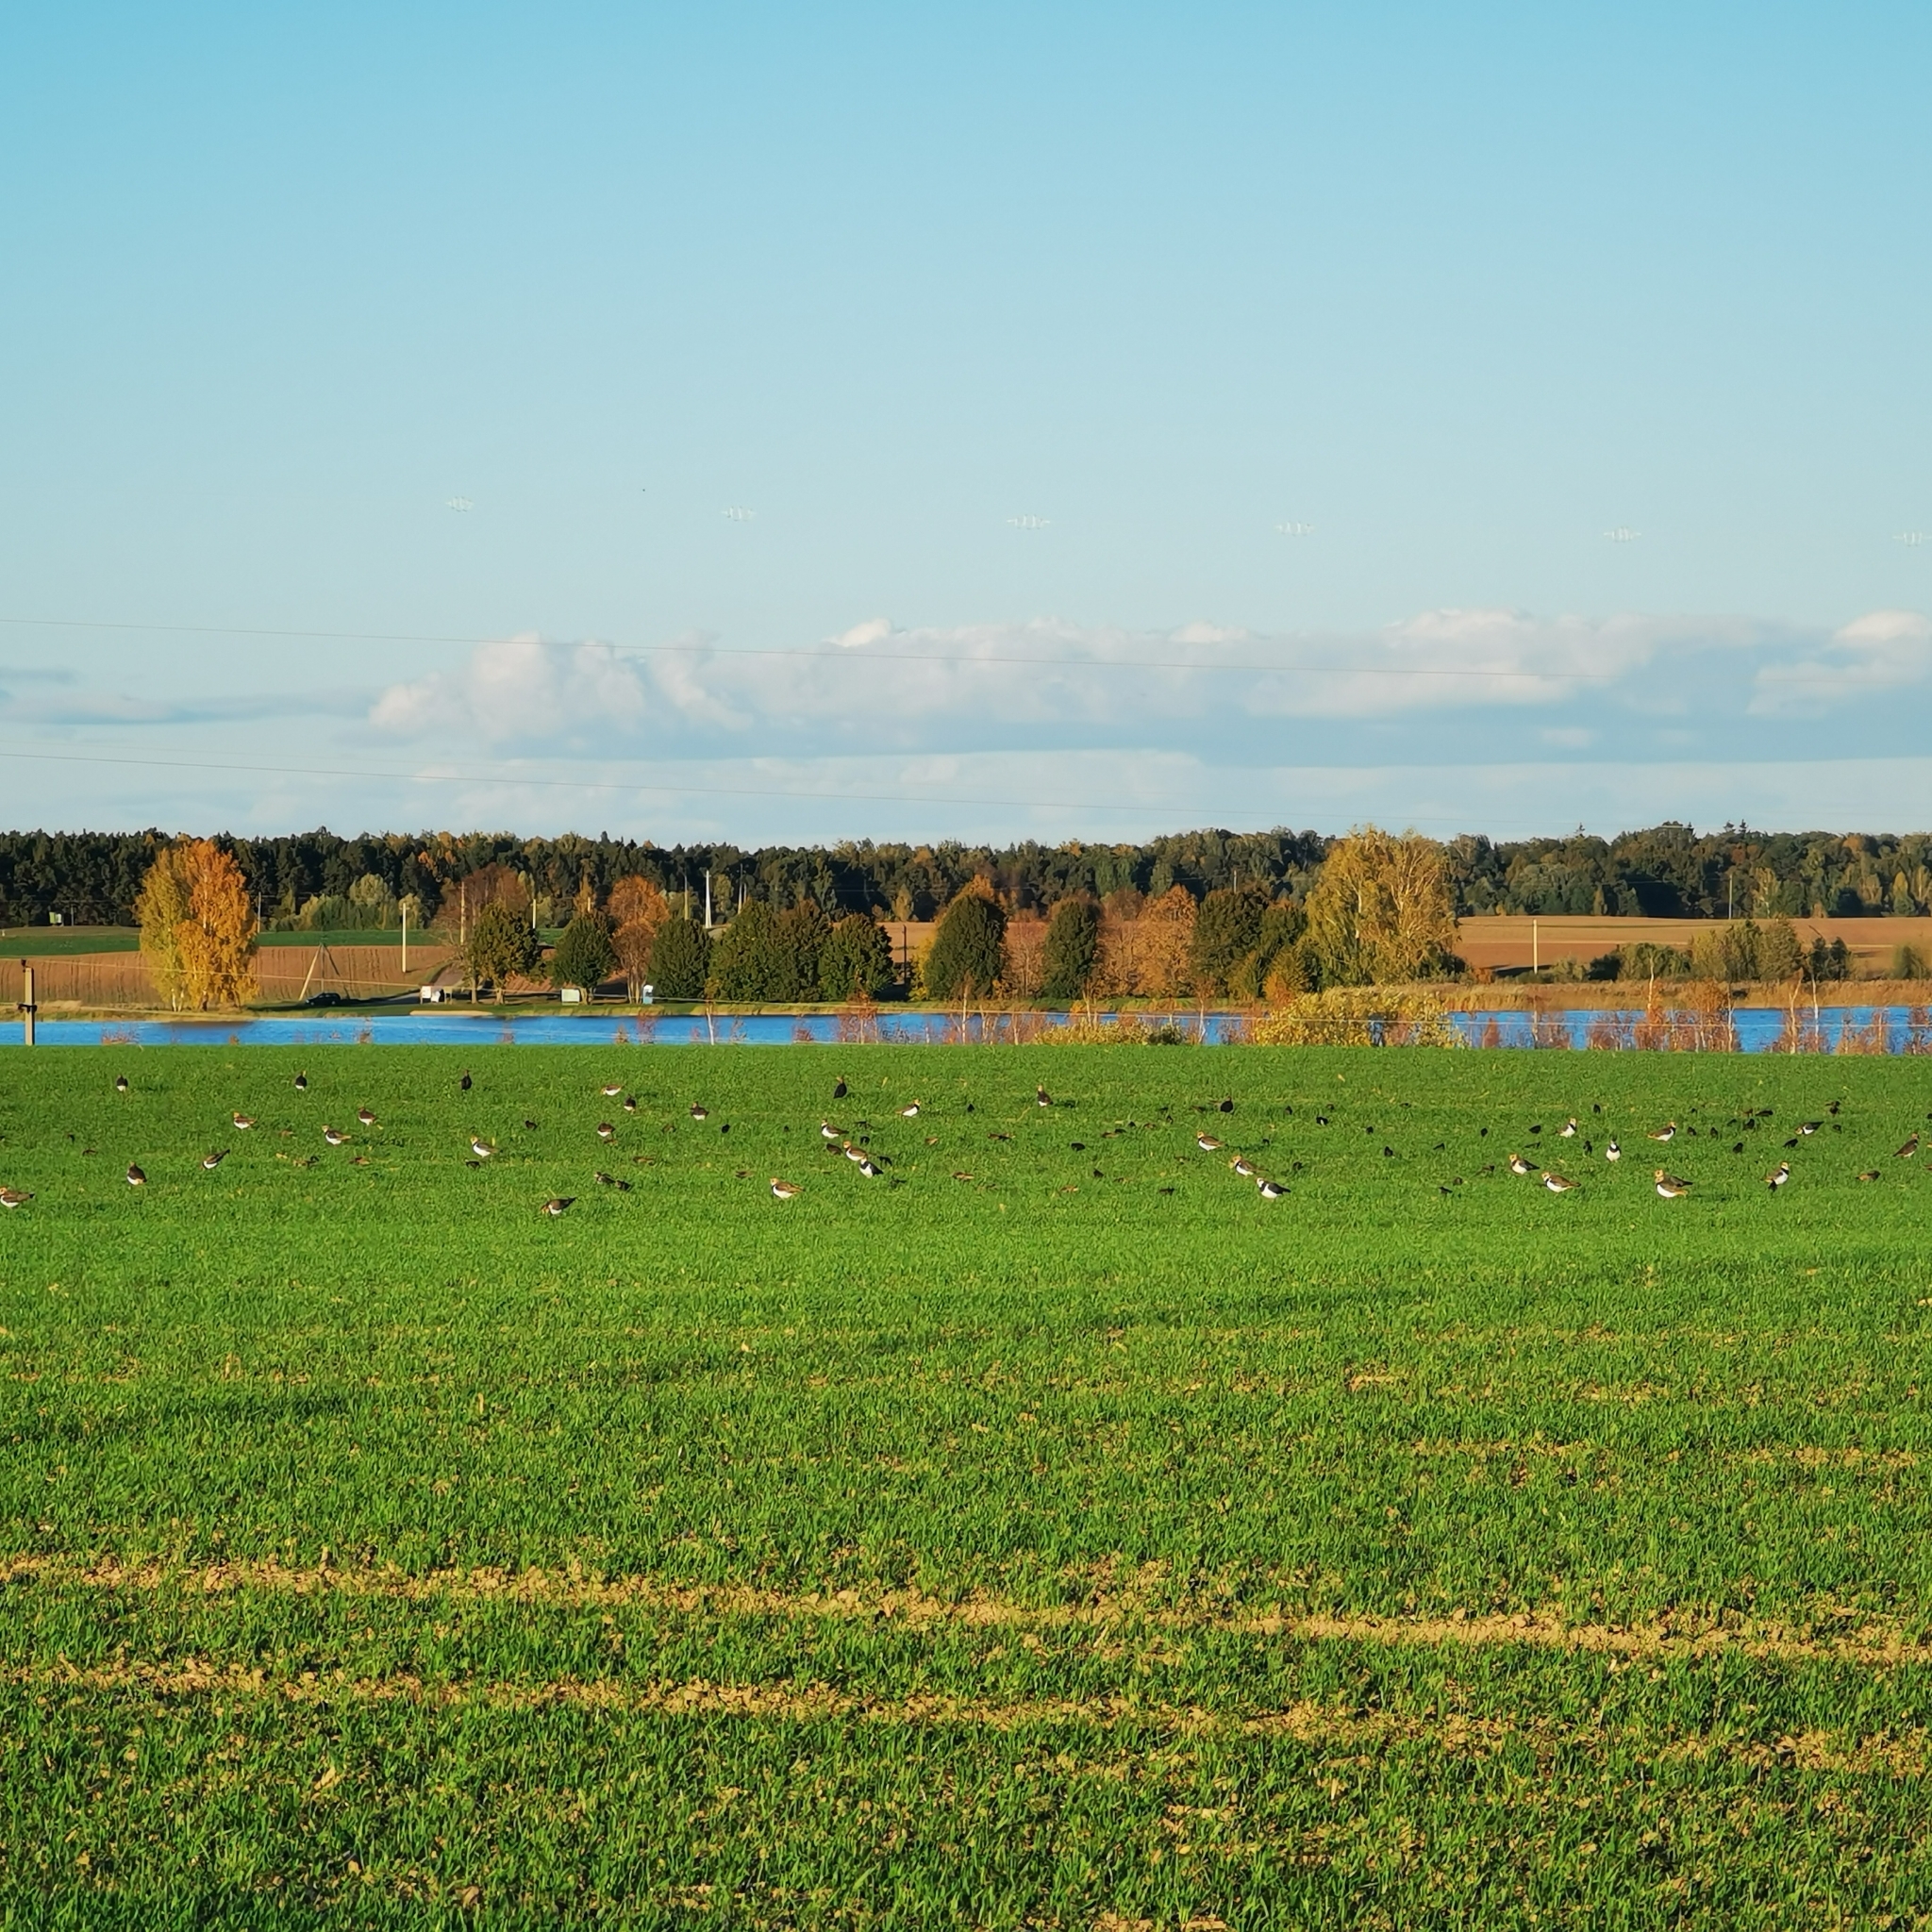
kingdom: Animalia
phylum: Chordata
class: Aves
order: Charadriiformes
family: Charadriidae
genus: Vanellus
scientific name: Vanellus vanellus
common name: Northern lapwing
